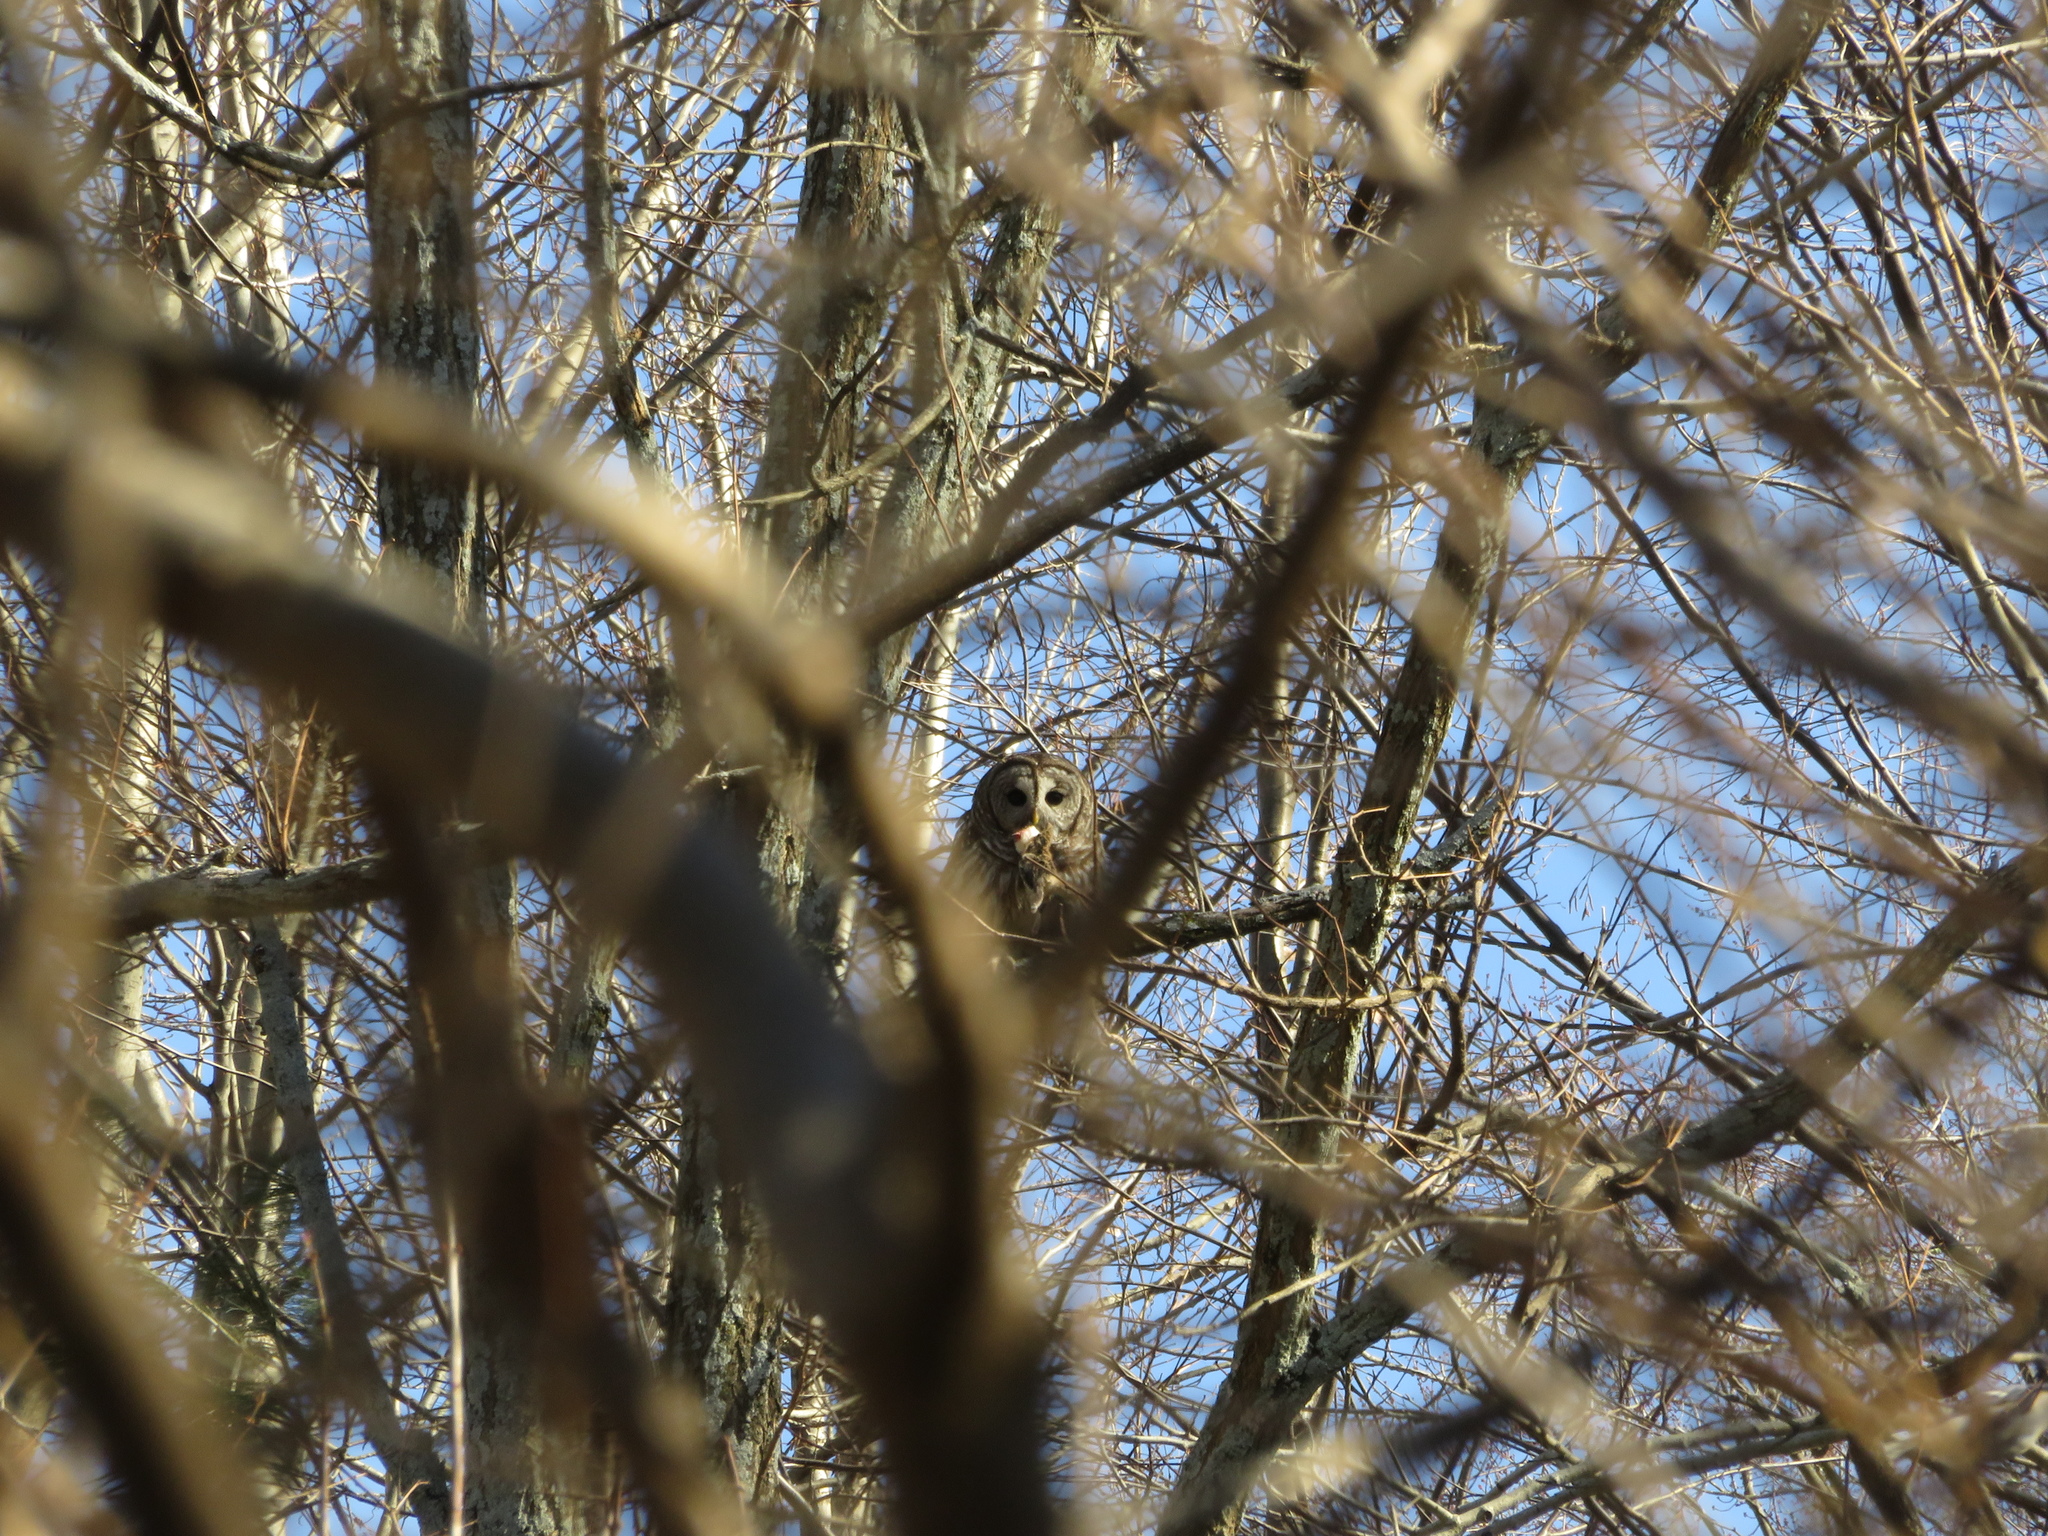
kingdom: Animalia
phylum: Chordata
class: Aves
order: Strigiformes
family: Strigidae
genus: Strix
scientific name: Strix varia
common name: Barred owl
